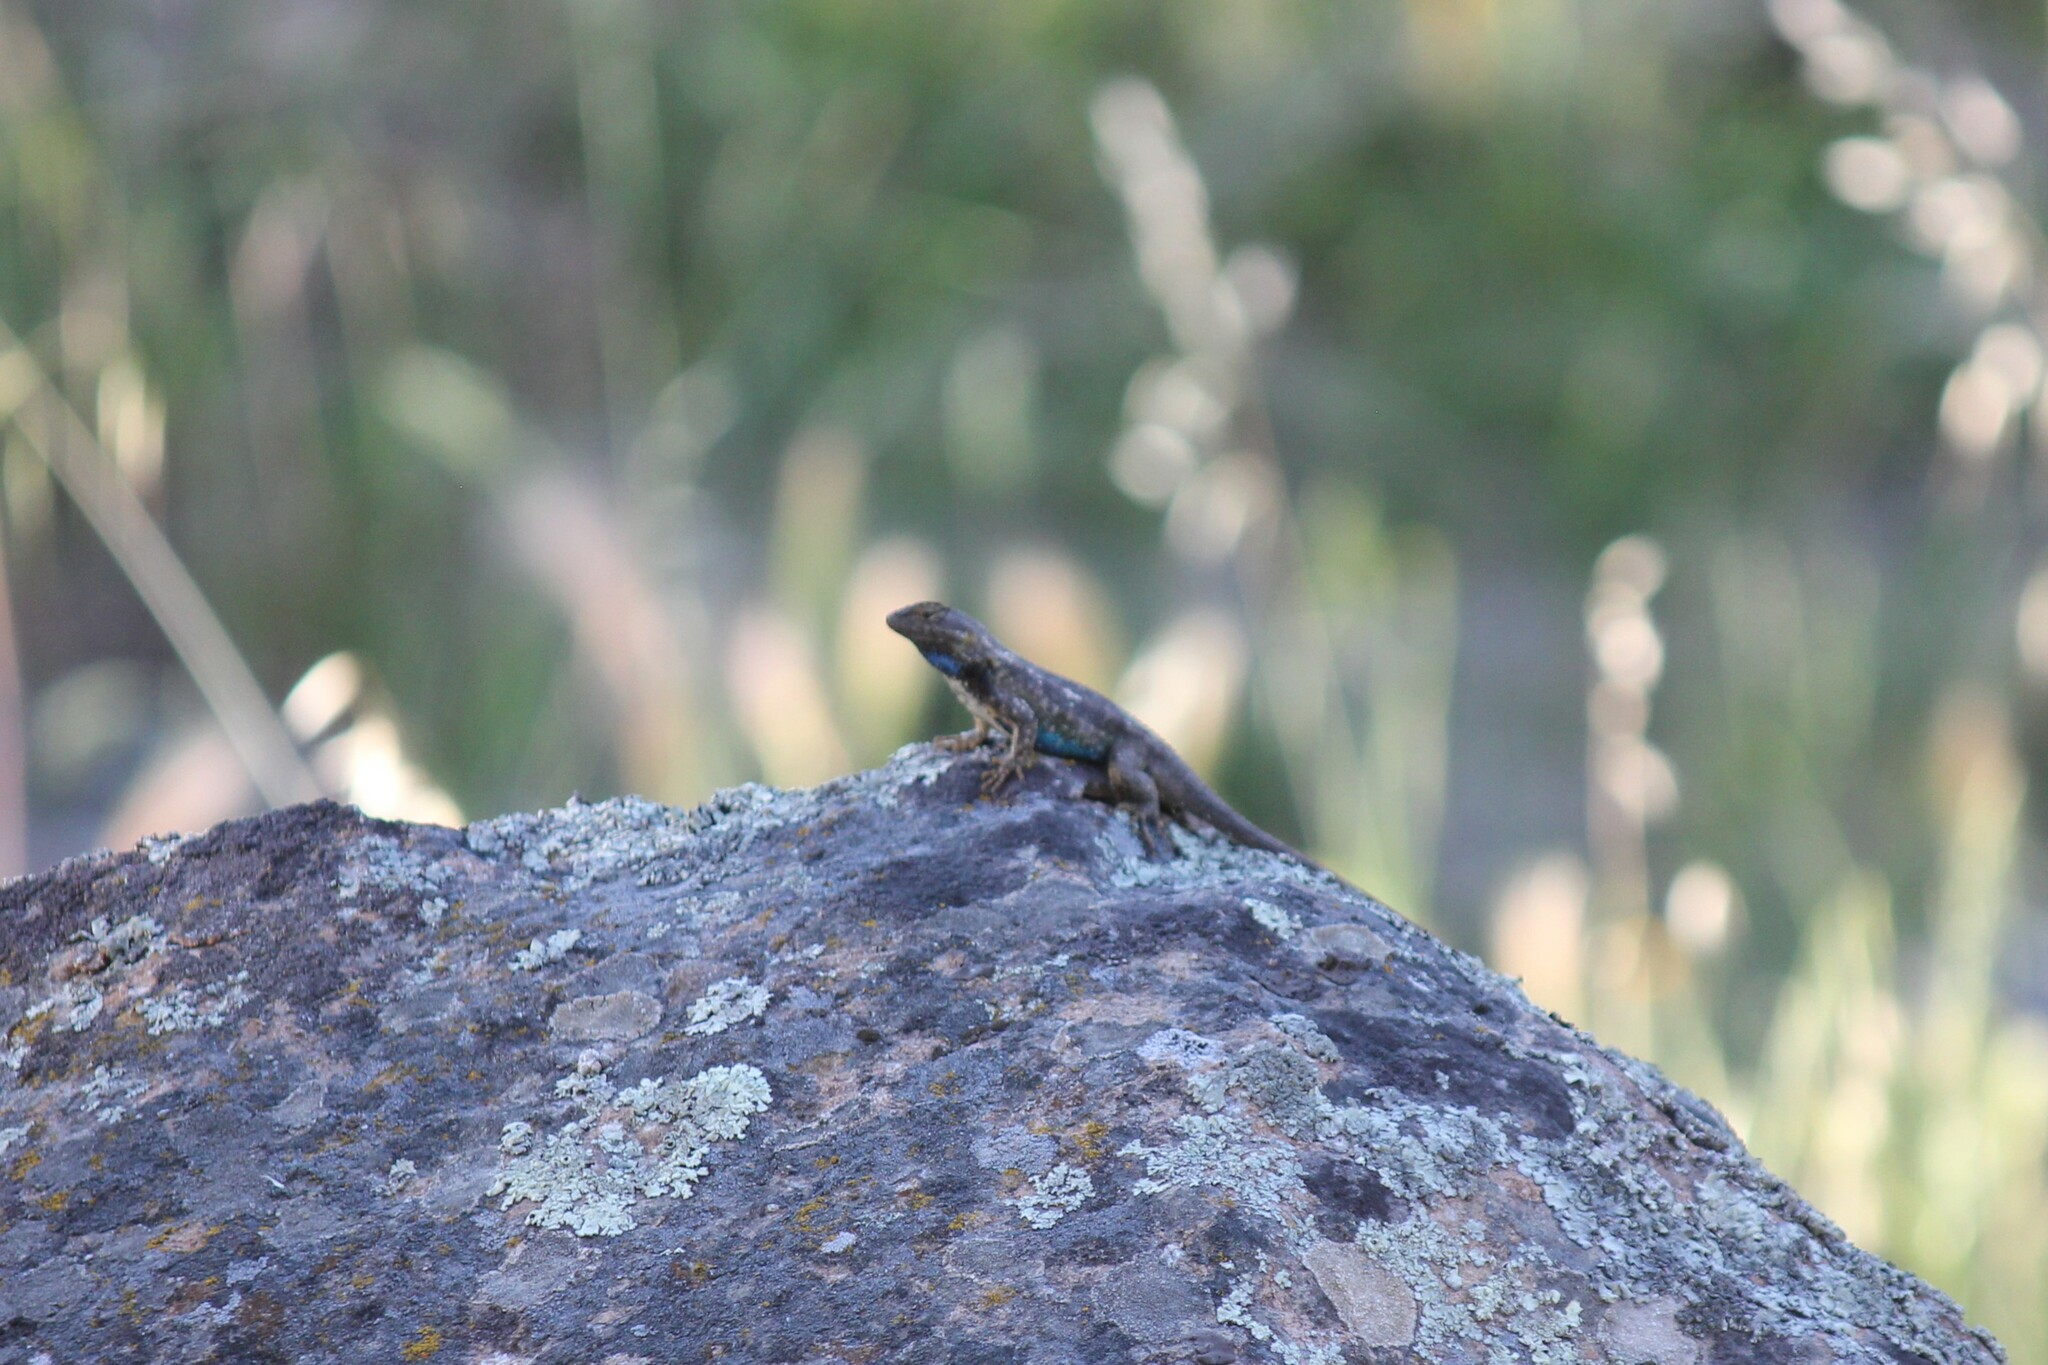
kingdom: Animalia
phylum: Chordata
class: Squamata
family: Phrynosomatidae
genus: Sceloporus
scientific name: Sceloporus occidentalis
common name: Western fence lizard
